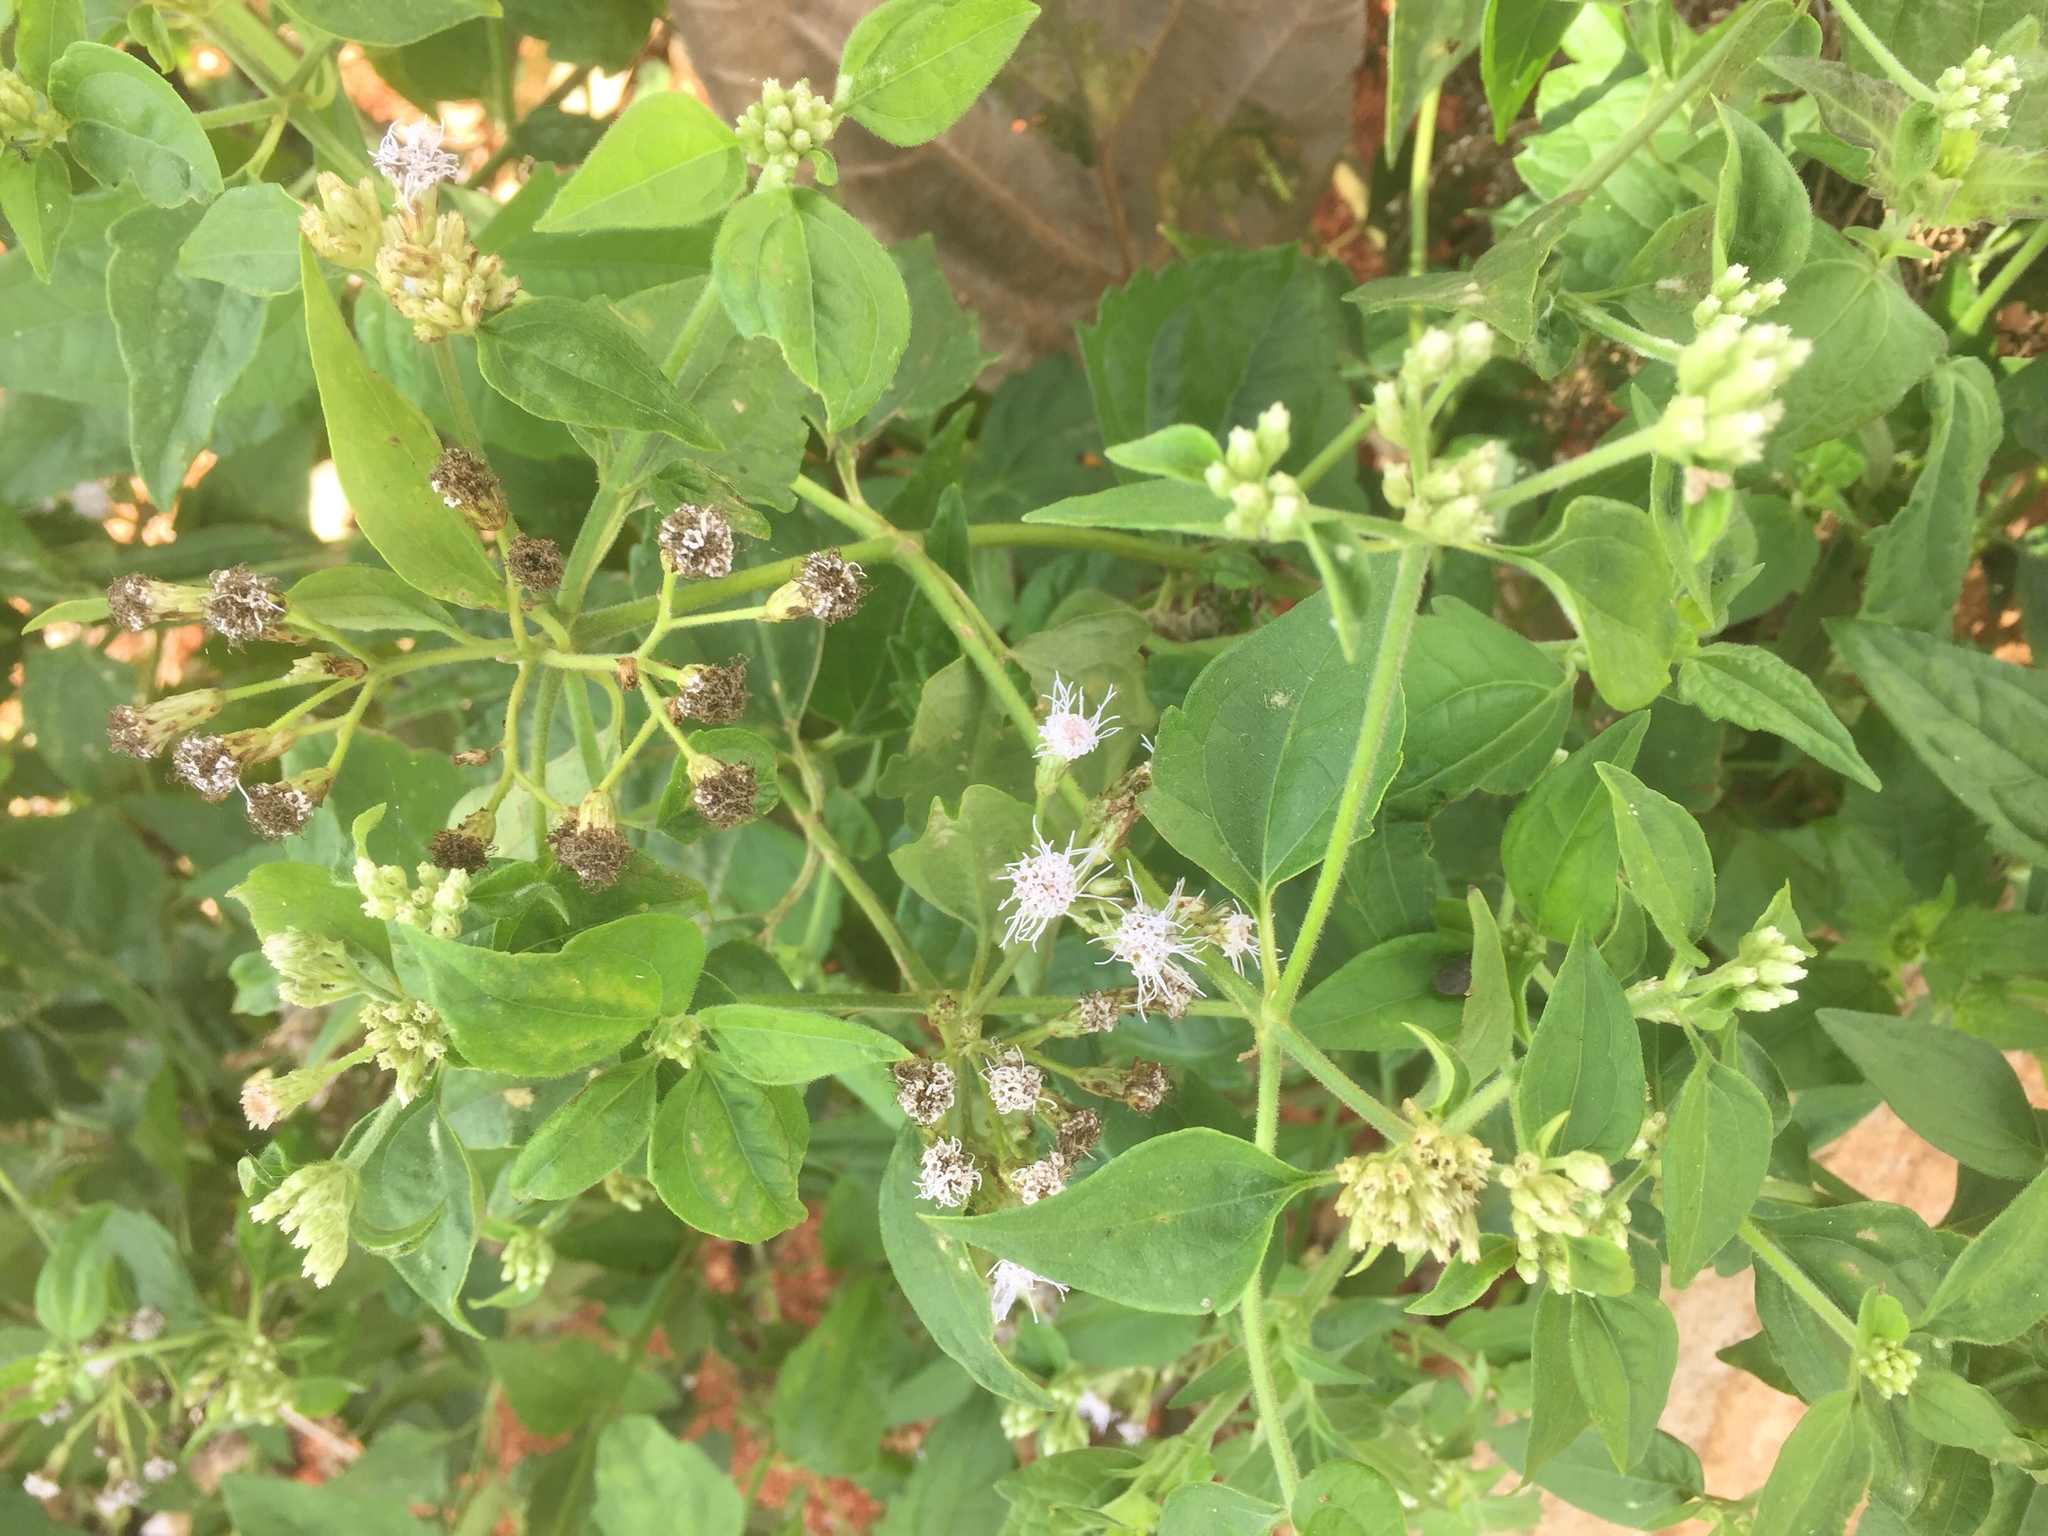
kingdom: Plantae
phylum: Tracheophyta
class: Magnoliopsida
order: Asterales
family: Asteraceae
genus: Chromolaena
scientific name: Chromolaena odorata
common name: Siamweed
